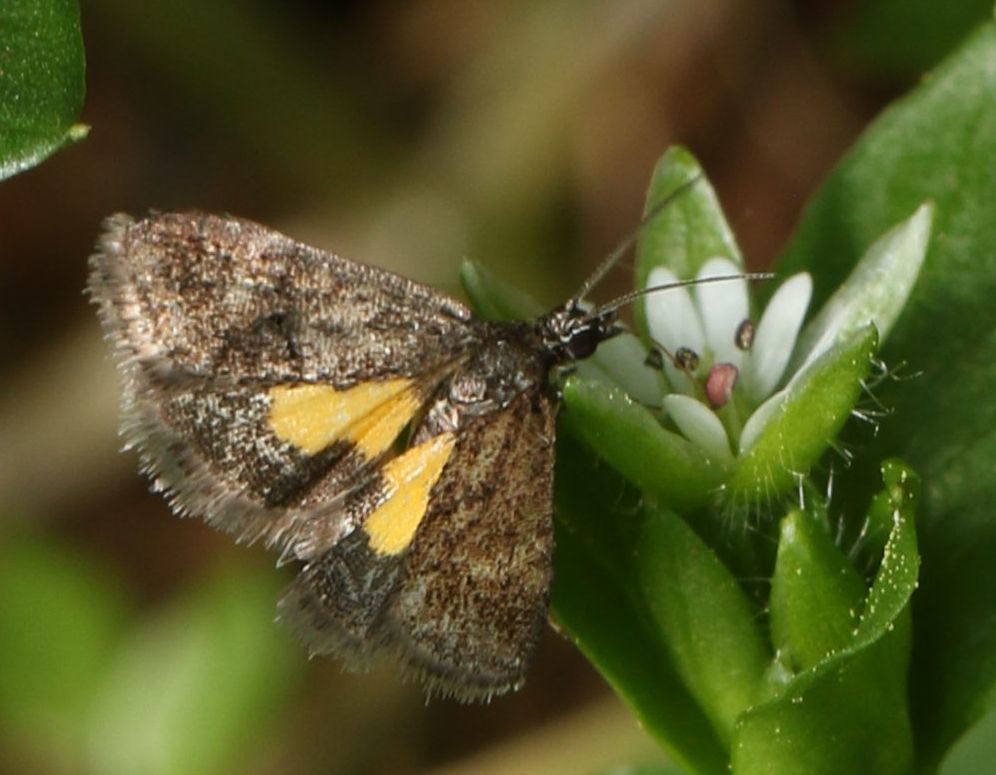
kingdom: Animalia
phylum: Arthropoda
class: Insecta
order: Lepidoptera
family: Crambidae
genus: Heliothela
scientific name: Heliothela ophideresana
